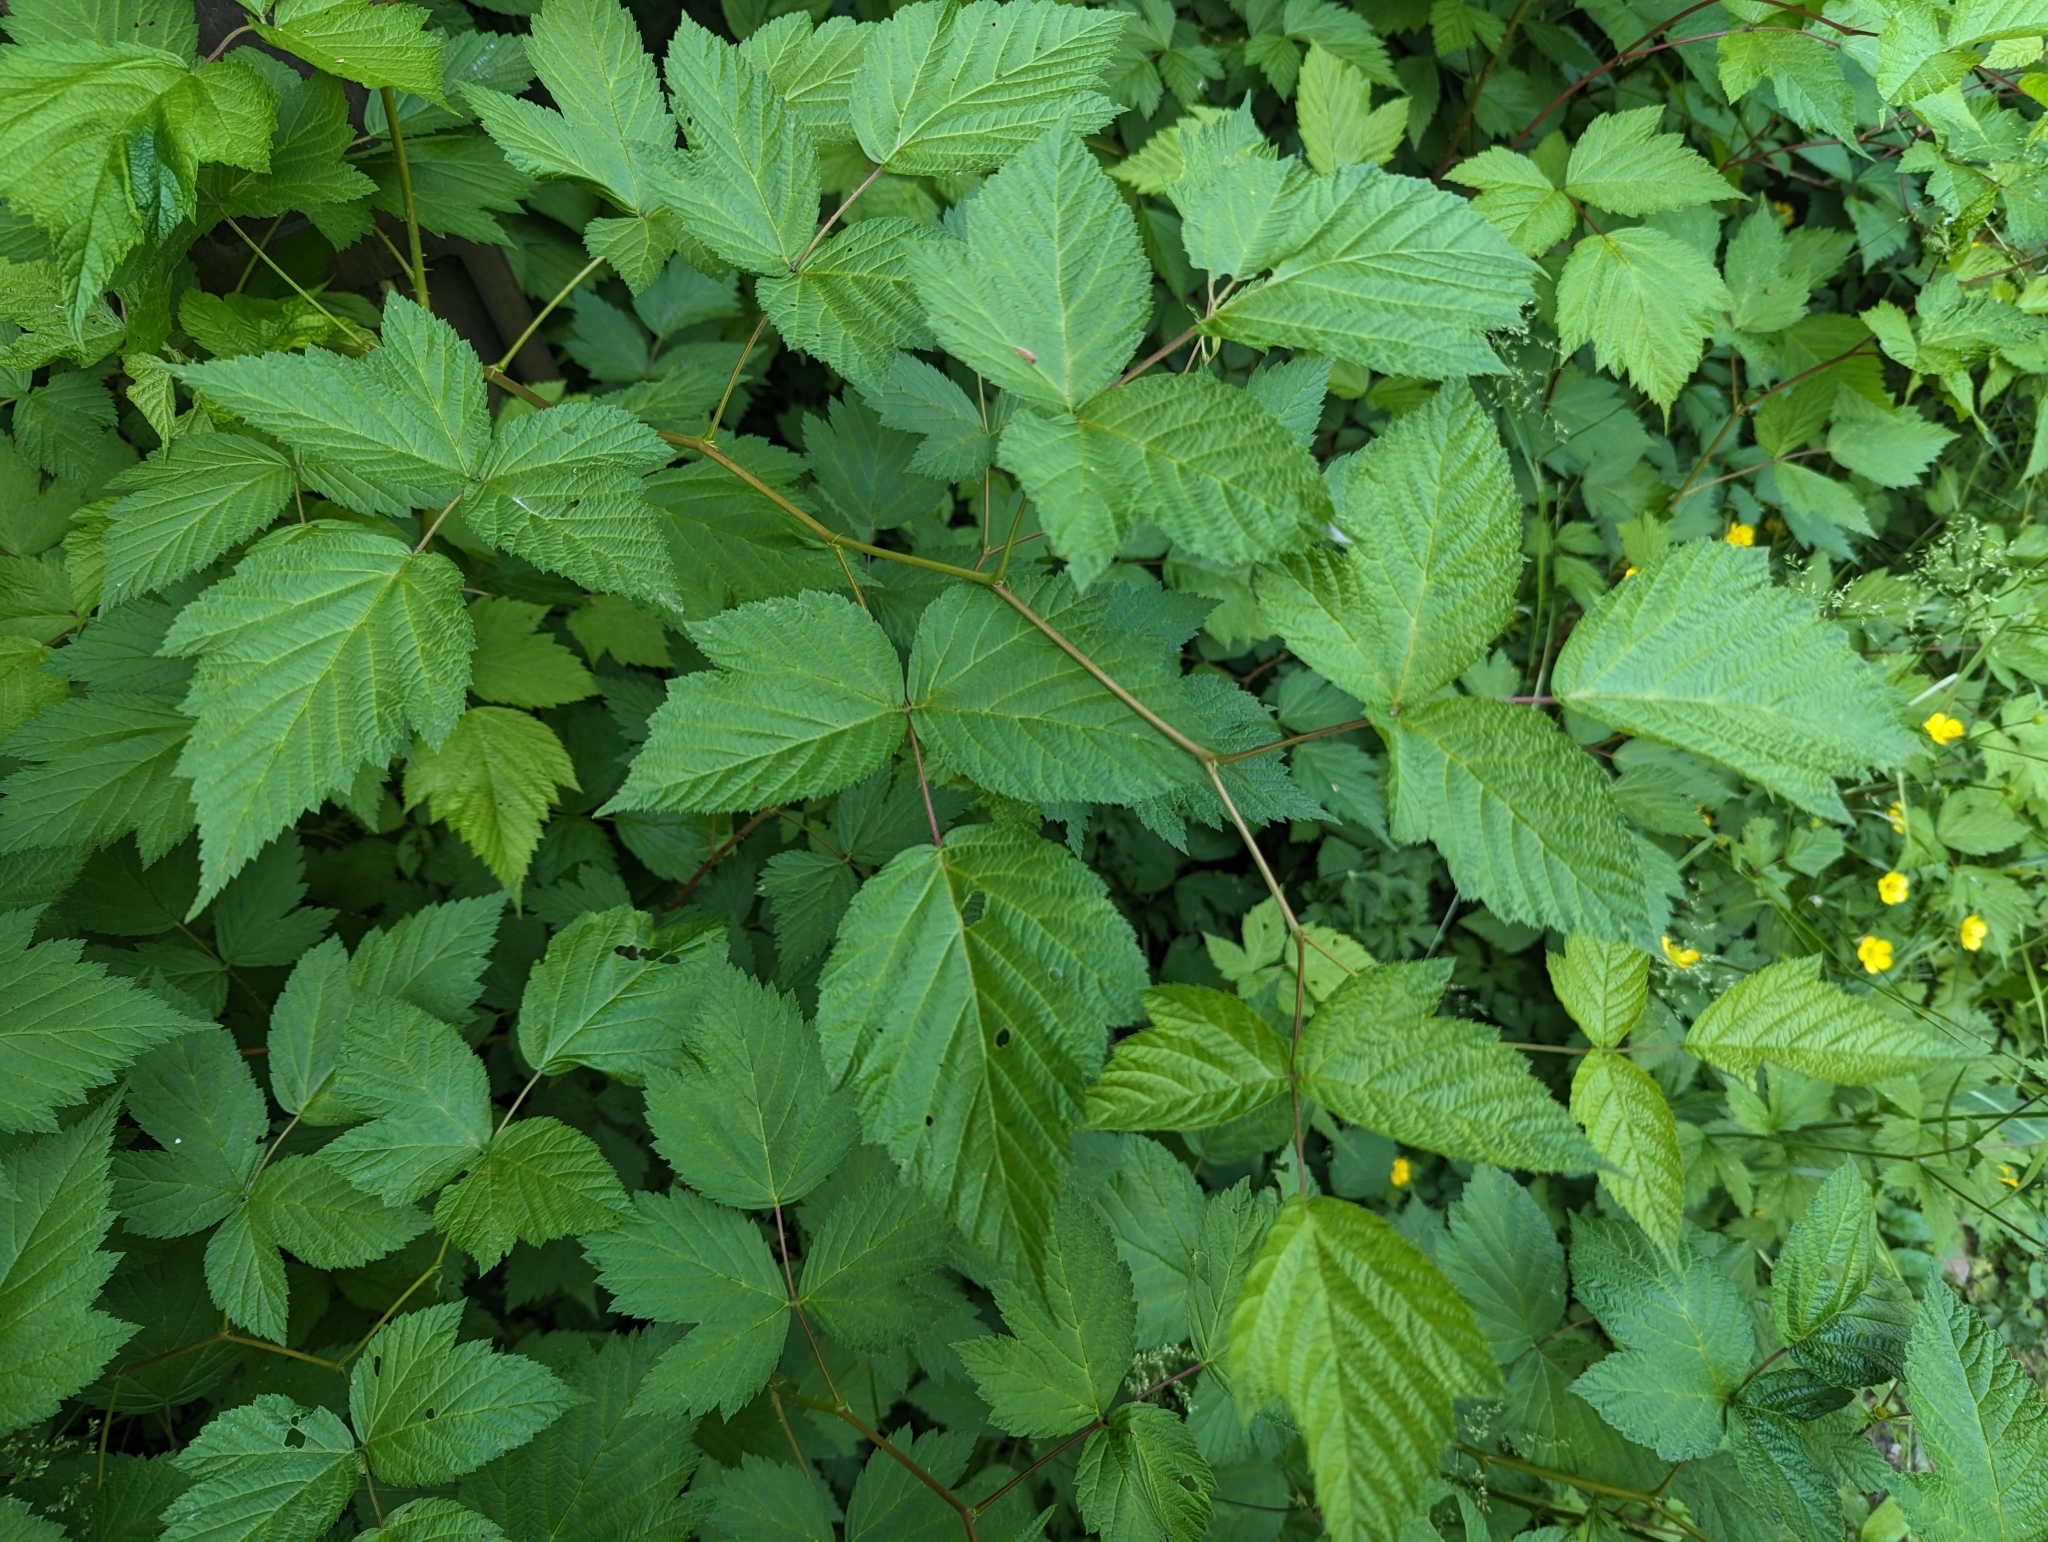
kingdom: Plantae
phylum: Tracheophyta
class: Magnoliopsida
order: Rosales
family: Rosaceae
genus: Rubus
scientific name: Rubus spectabilis
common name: Salmonberry
